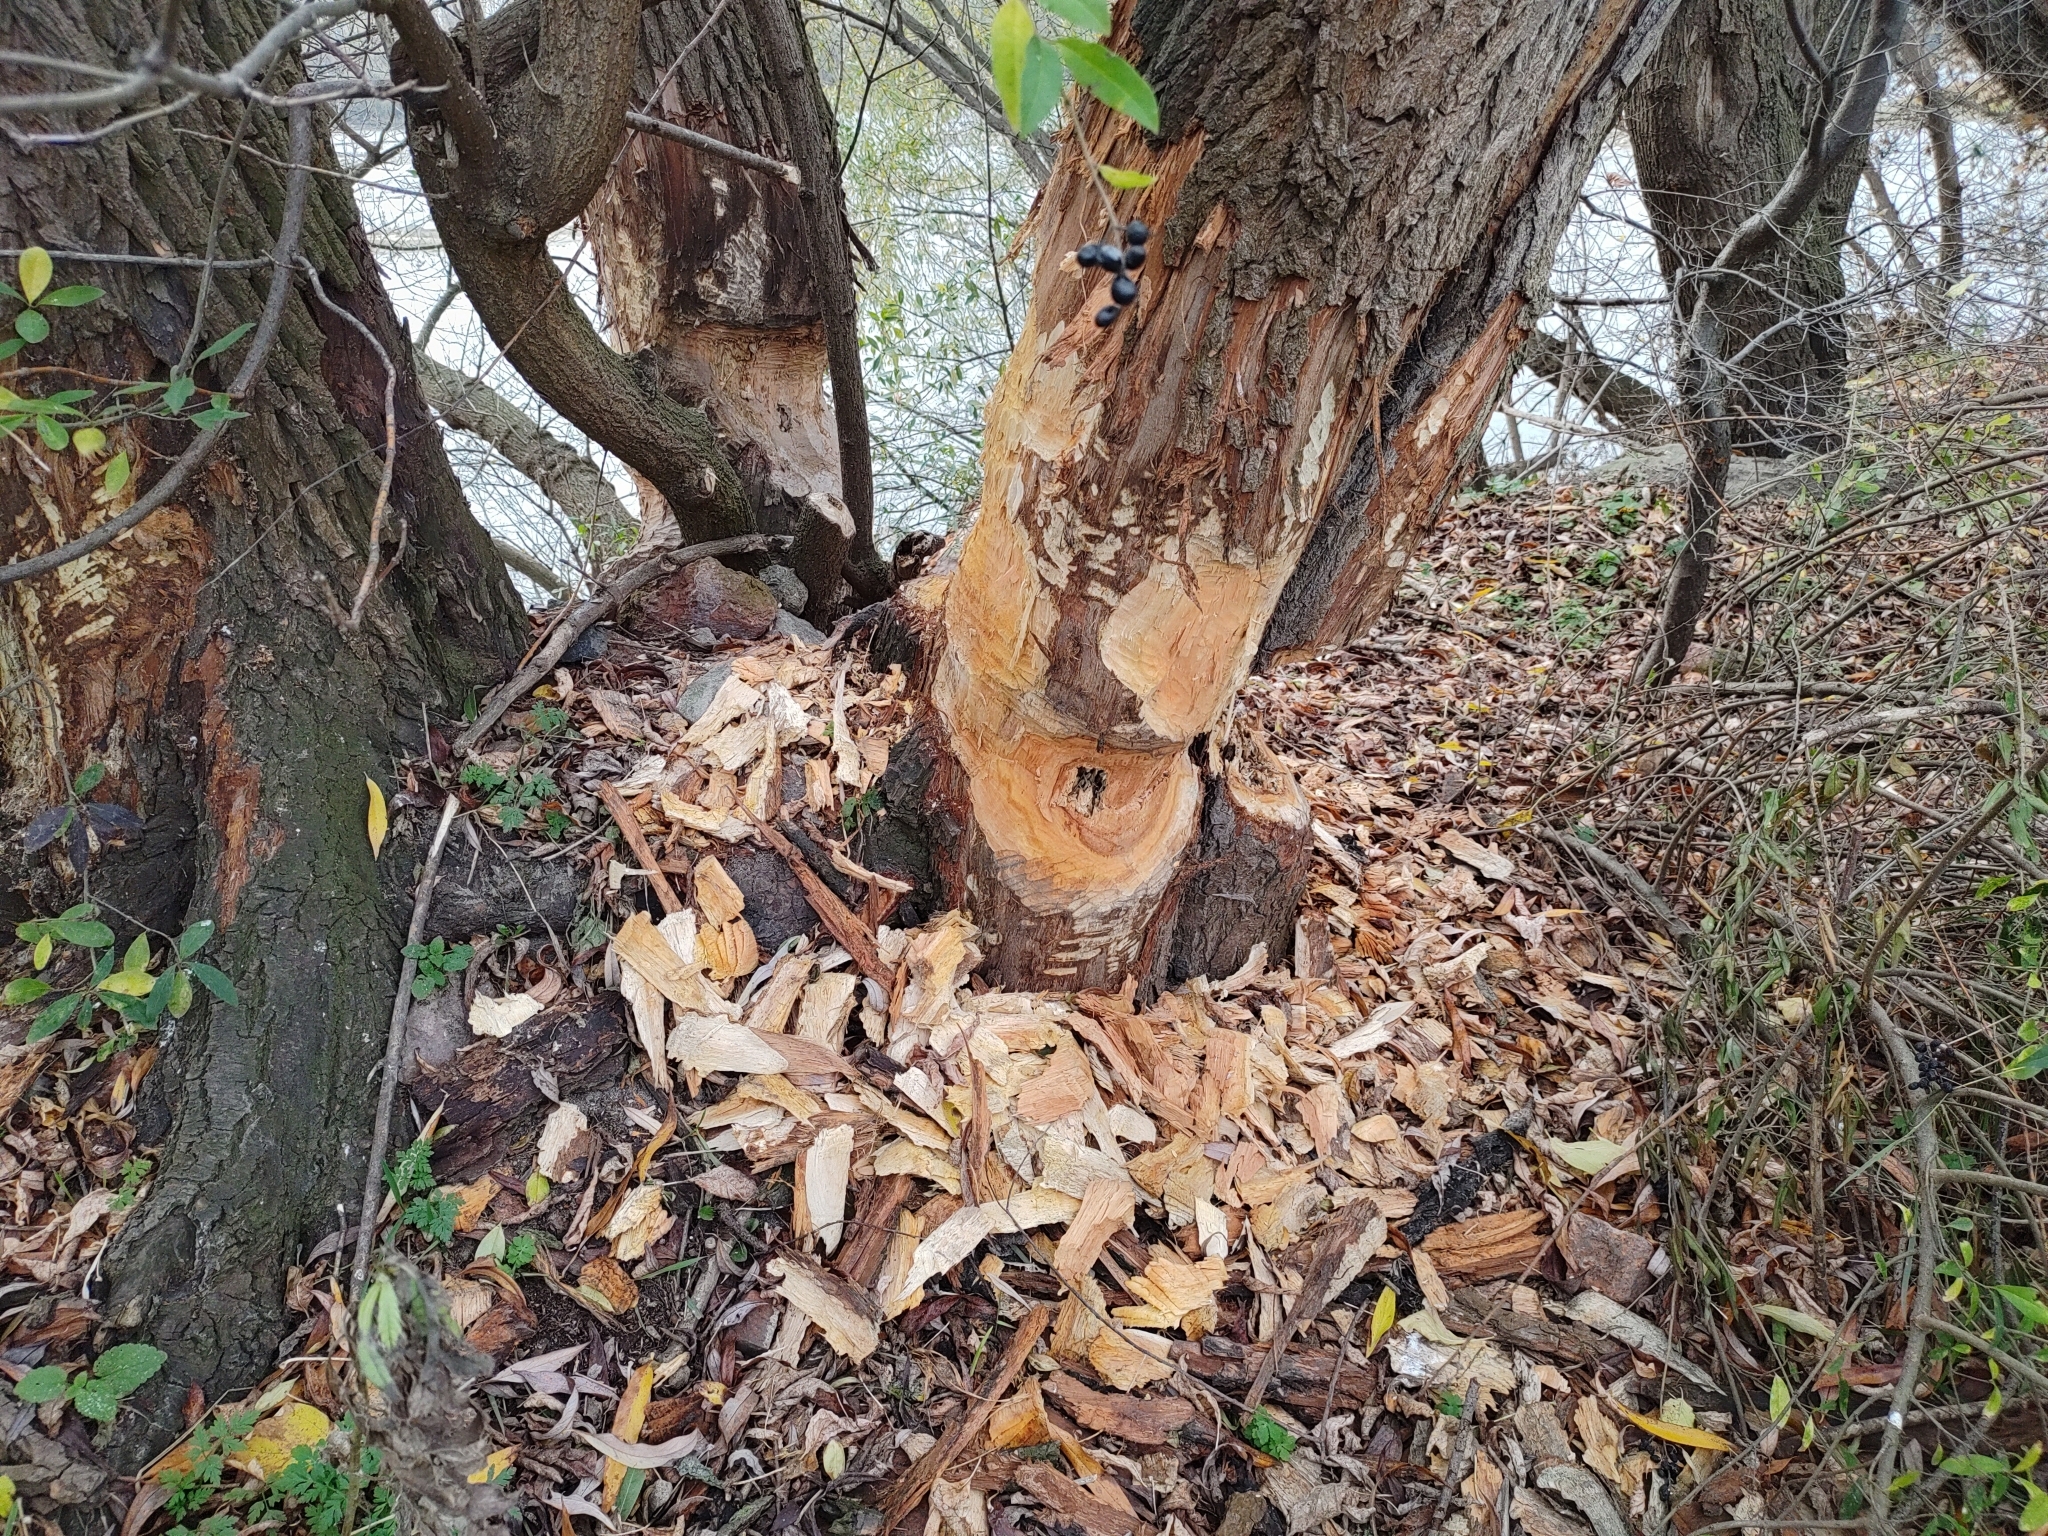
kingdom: Animalia
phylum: Chordata
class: Mammalia
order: Rodentia
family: Castoridae
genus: Castor
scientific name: Castor fiber
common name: Eurasian beaver
